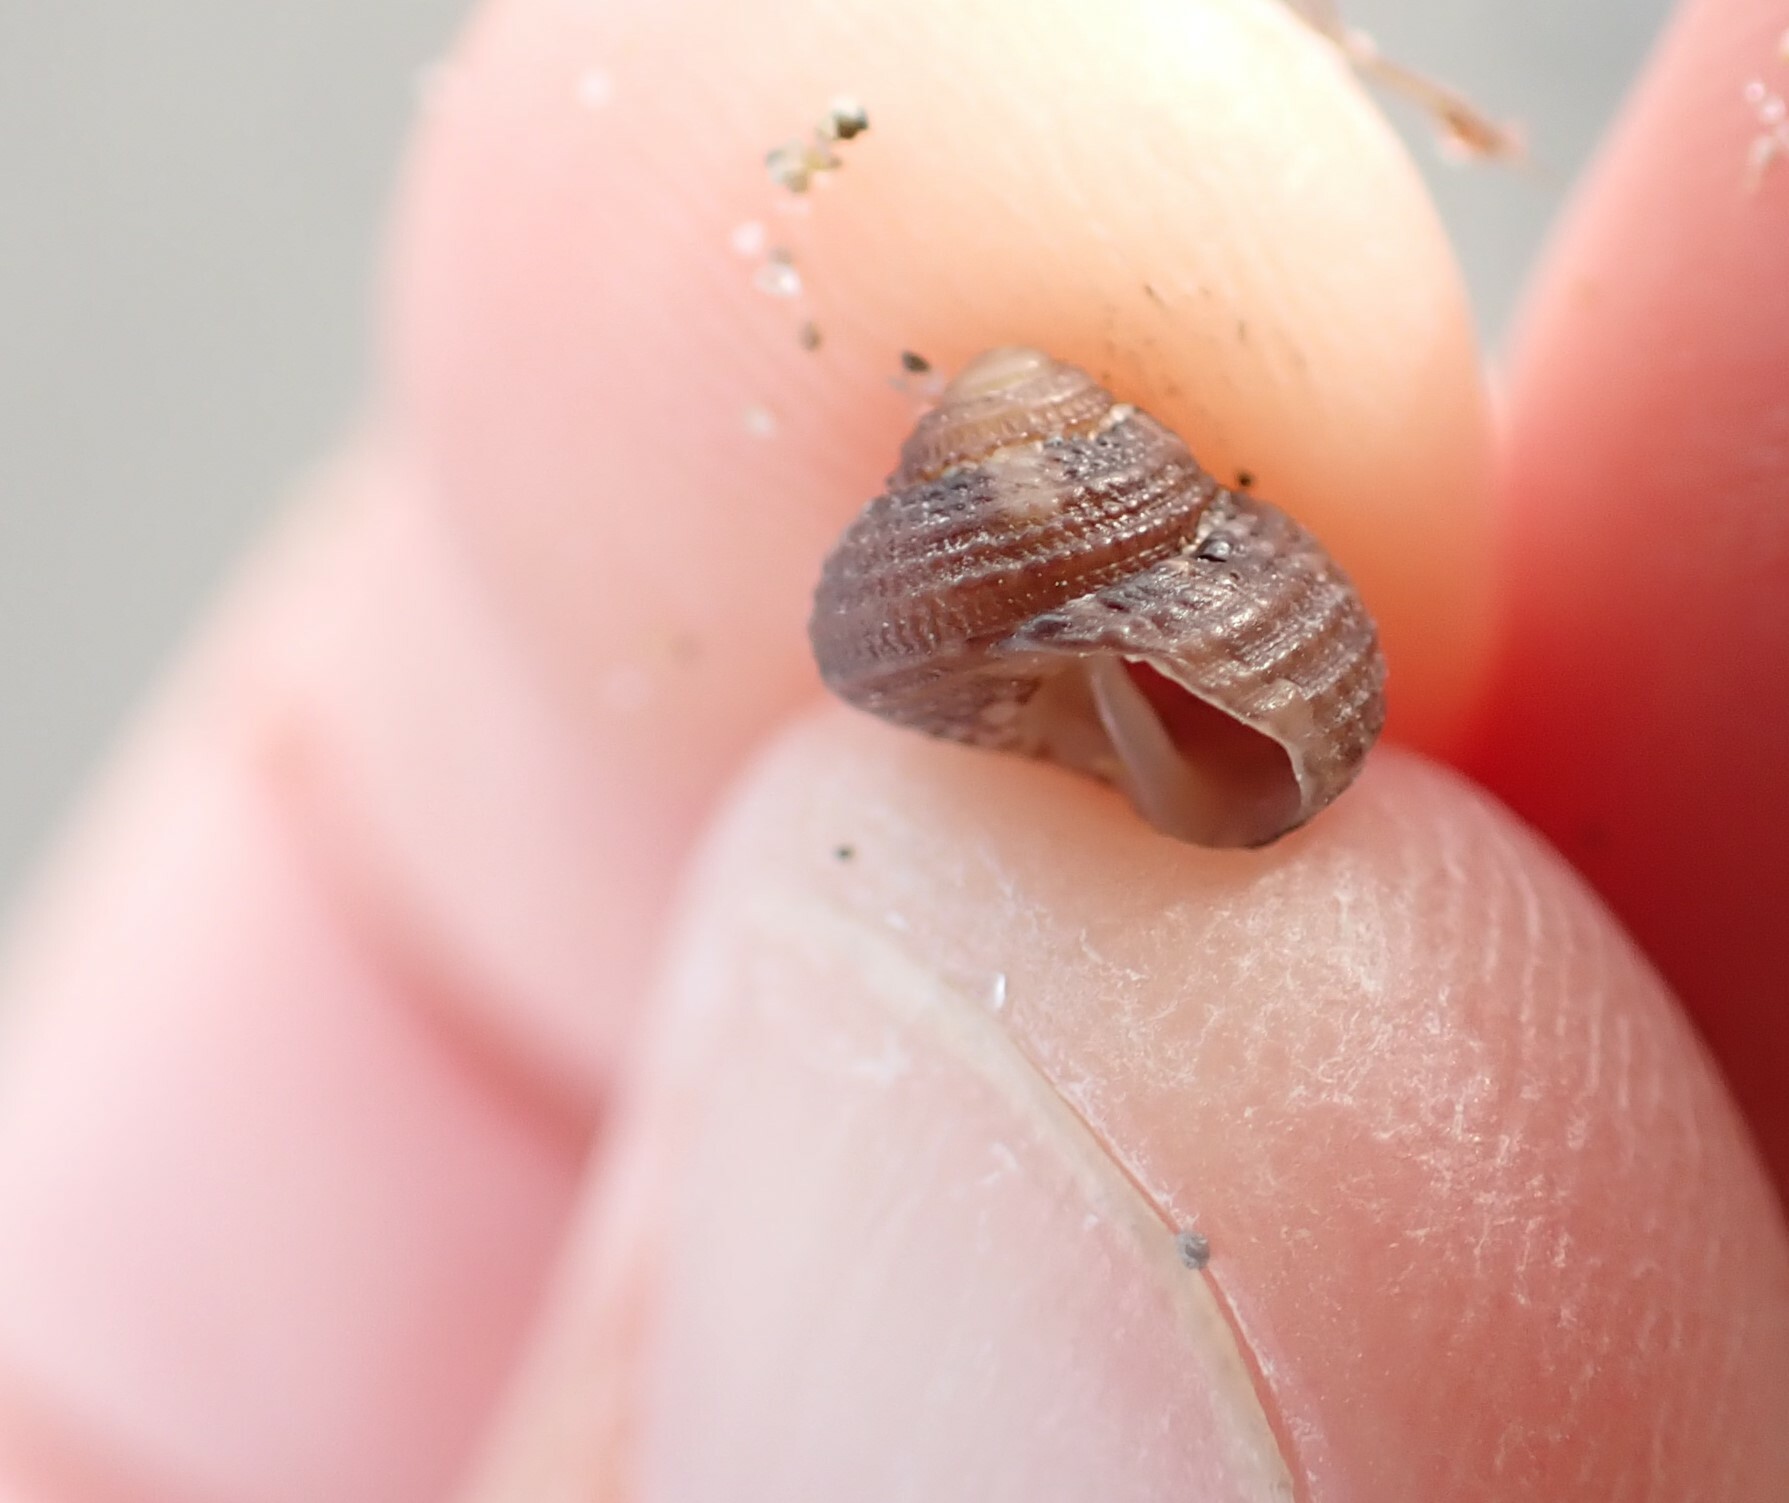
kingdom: Animalia
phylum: Mollusca
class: Gastropoda
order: Trochida
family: Trochidae
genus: Clanculus
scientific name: Clanculus cruciatus
